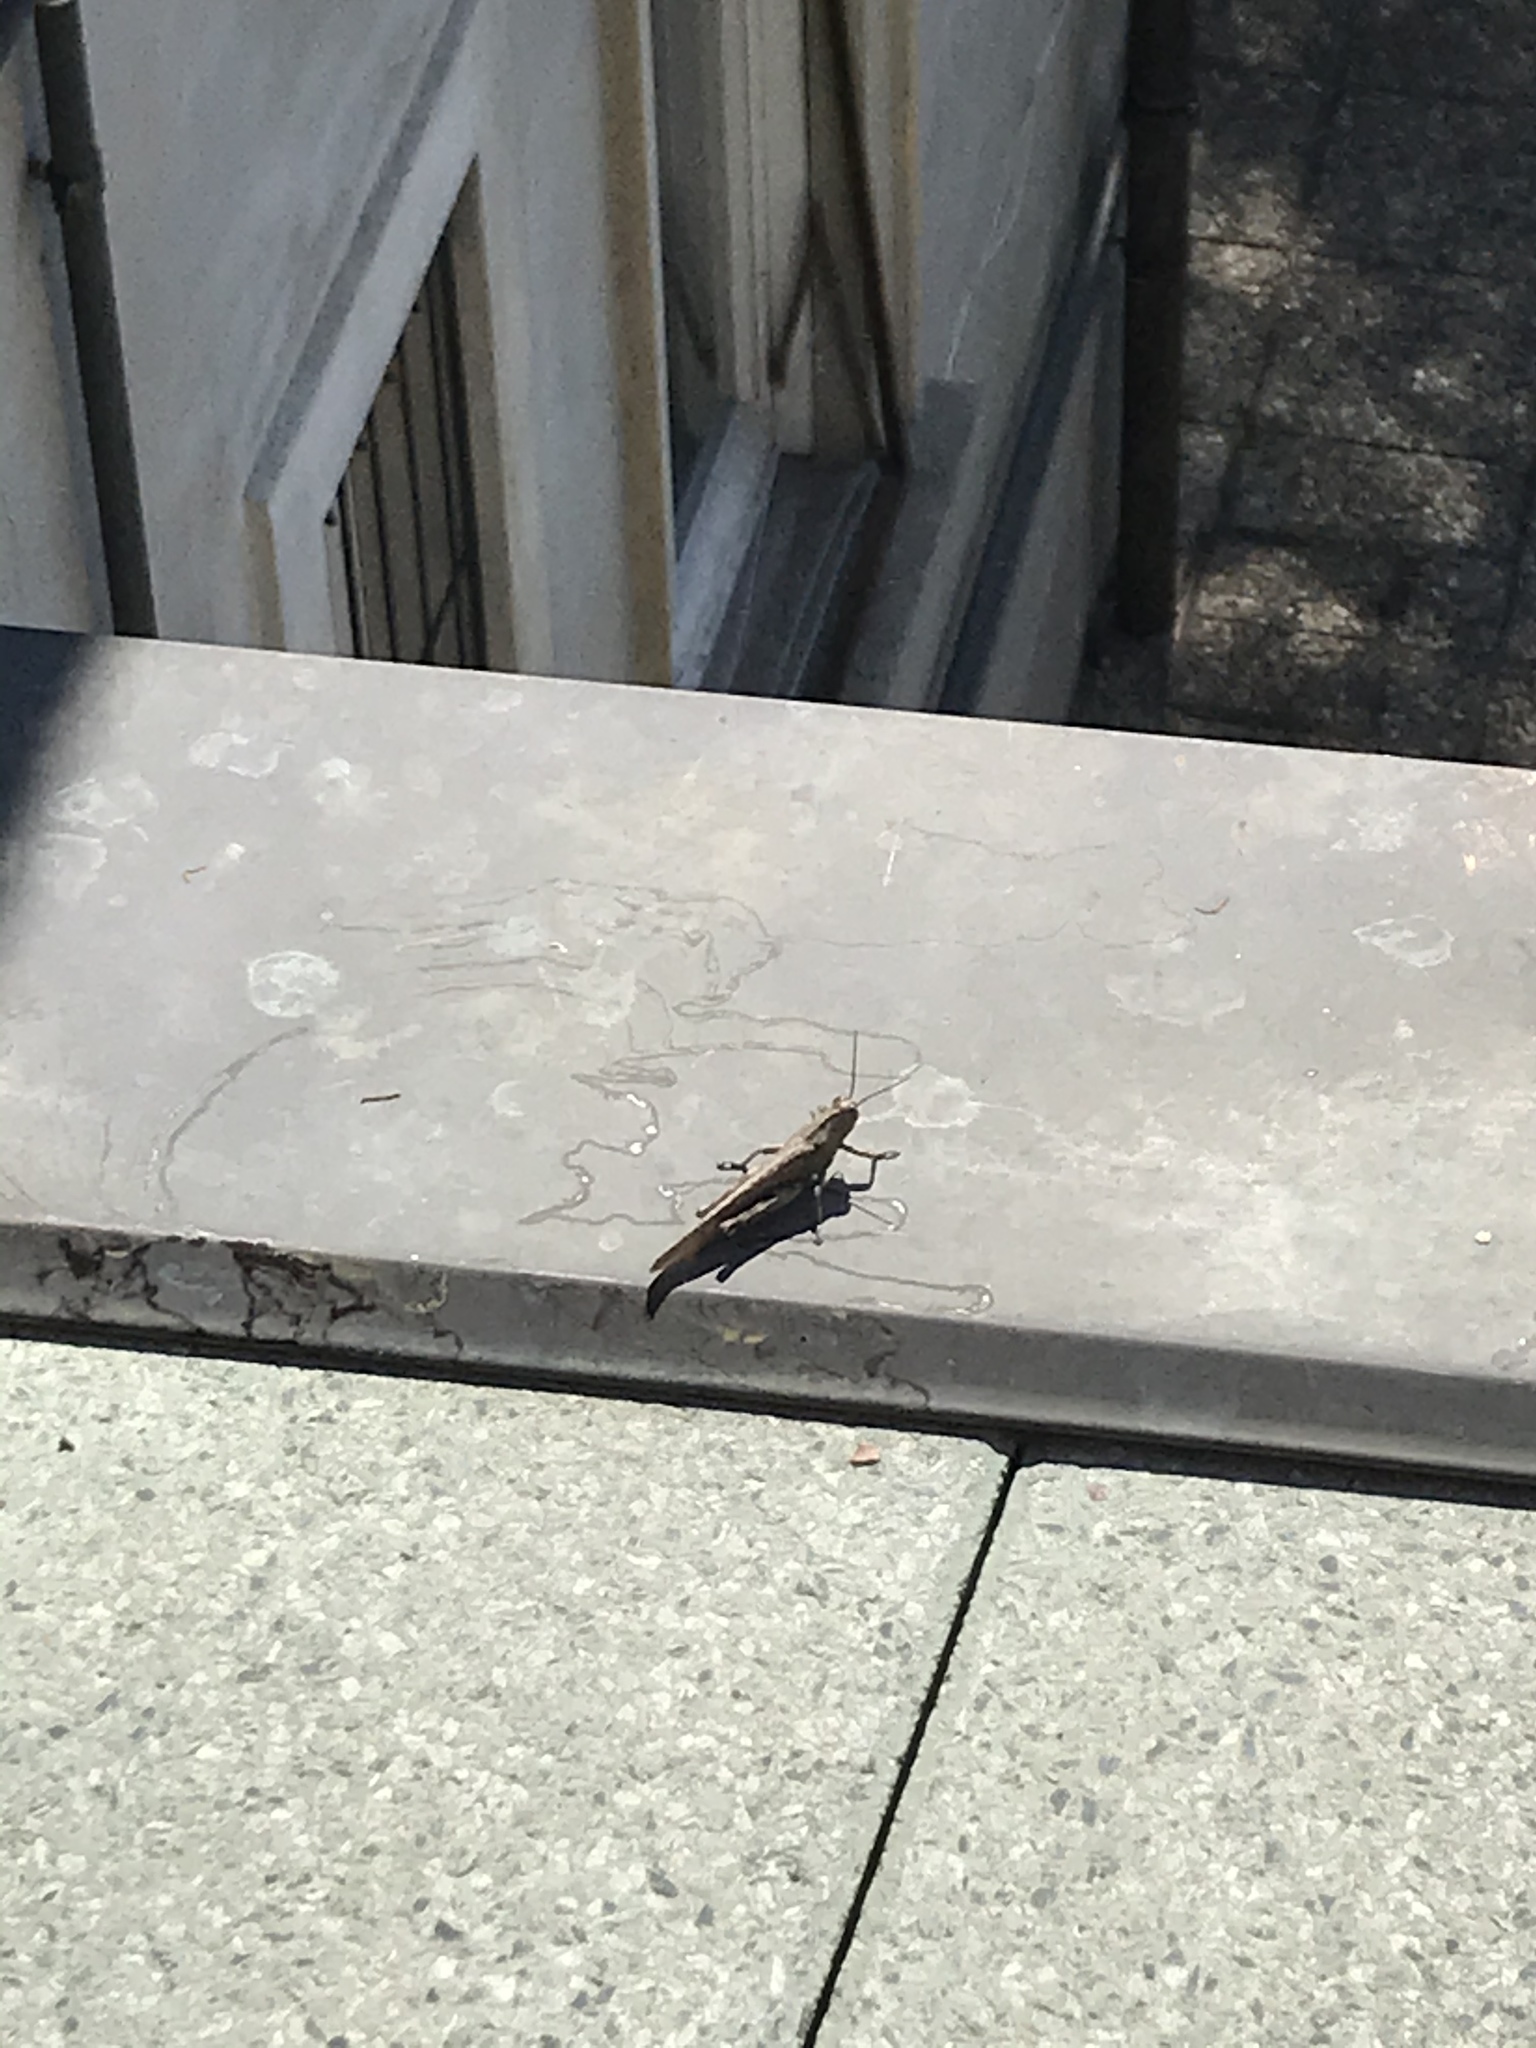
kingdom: Animalia
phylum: Arthropoda
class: Insecta
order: Orthoptera
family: Acrididae
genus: Anacridium
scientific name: Anacridium aegyptium
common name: Egyptian grasshopper
